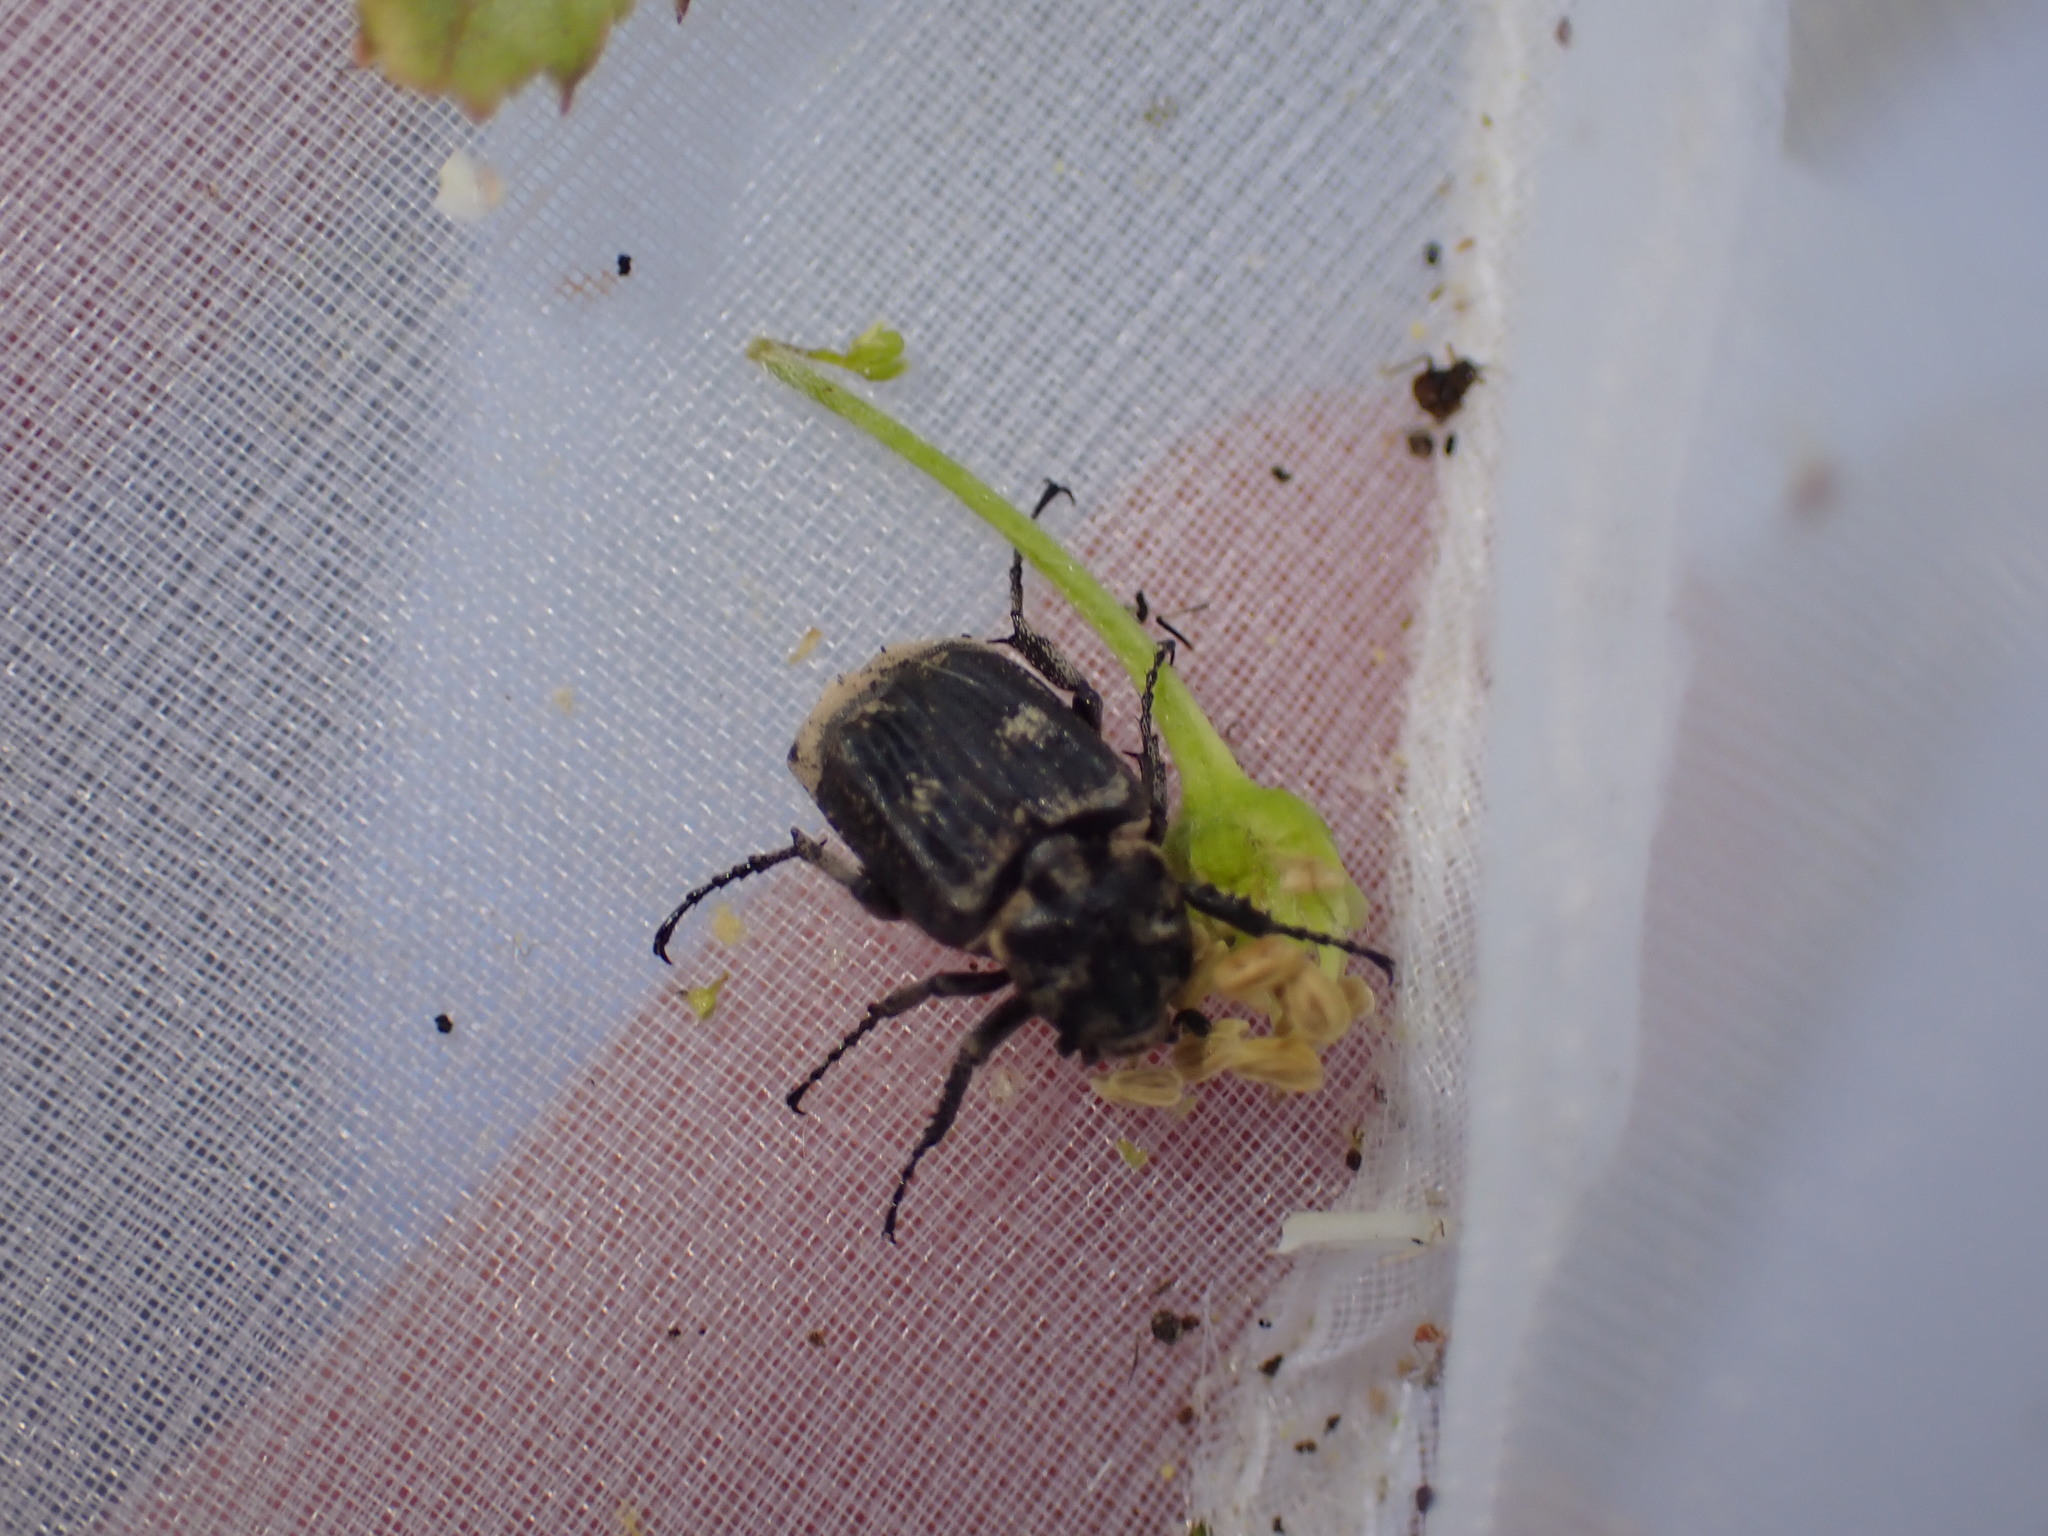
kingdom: Animalia
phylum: Arthropoda
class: Insecta
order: Coleoptera
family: Scarabaeidae
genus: Valgus
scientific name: Valgus hemipterus
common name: Bug flower chafer
